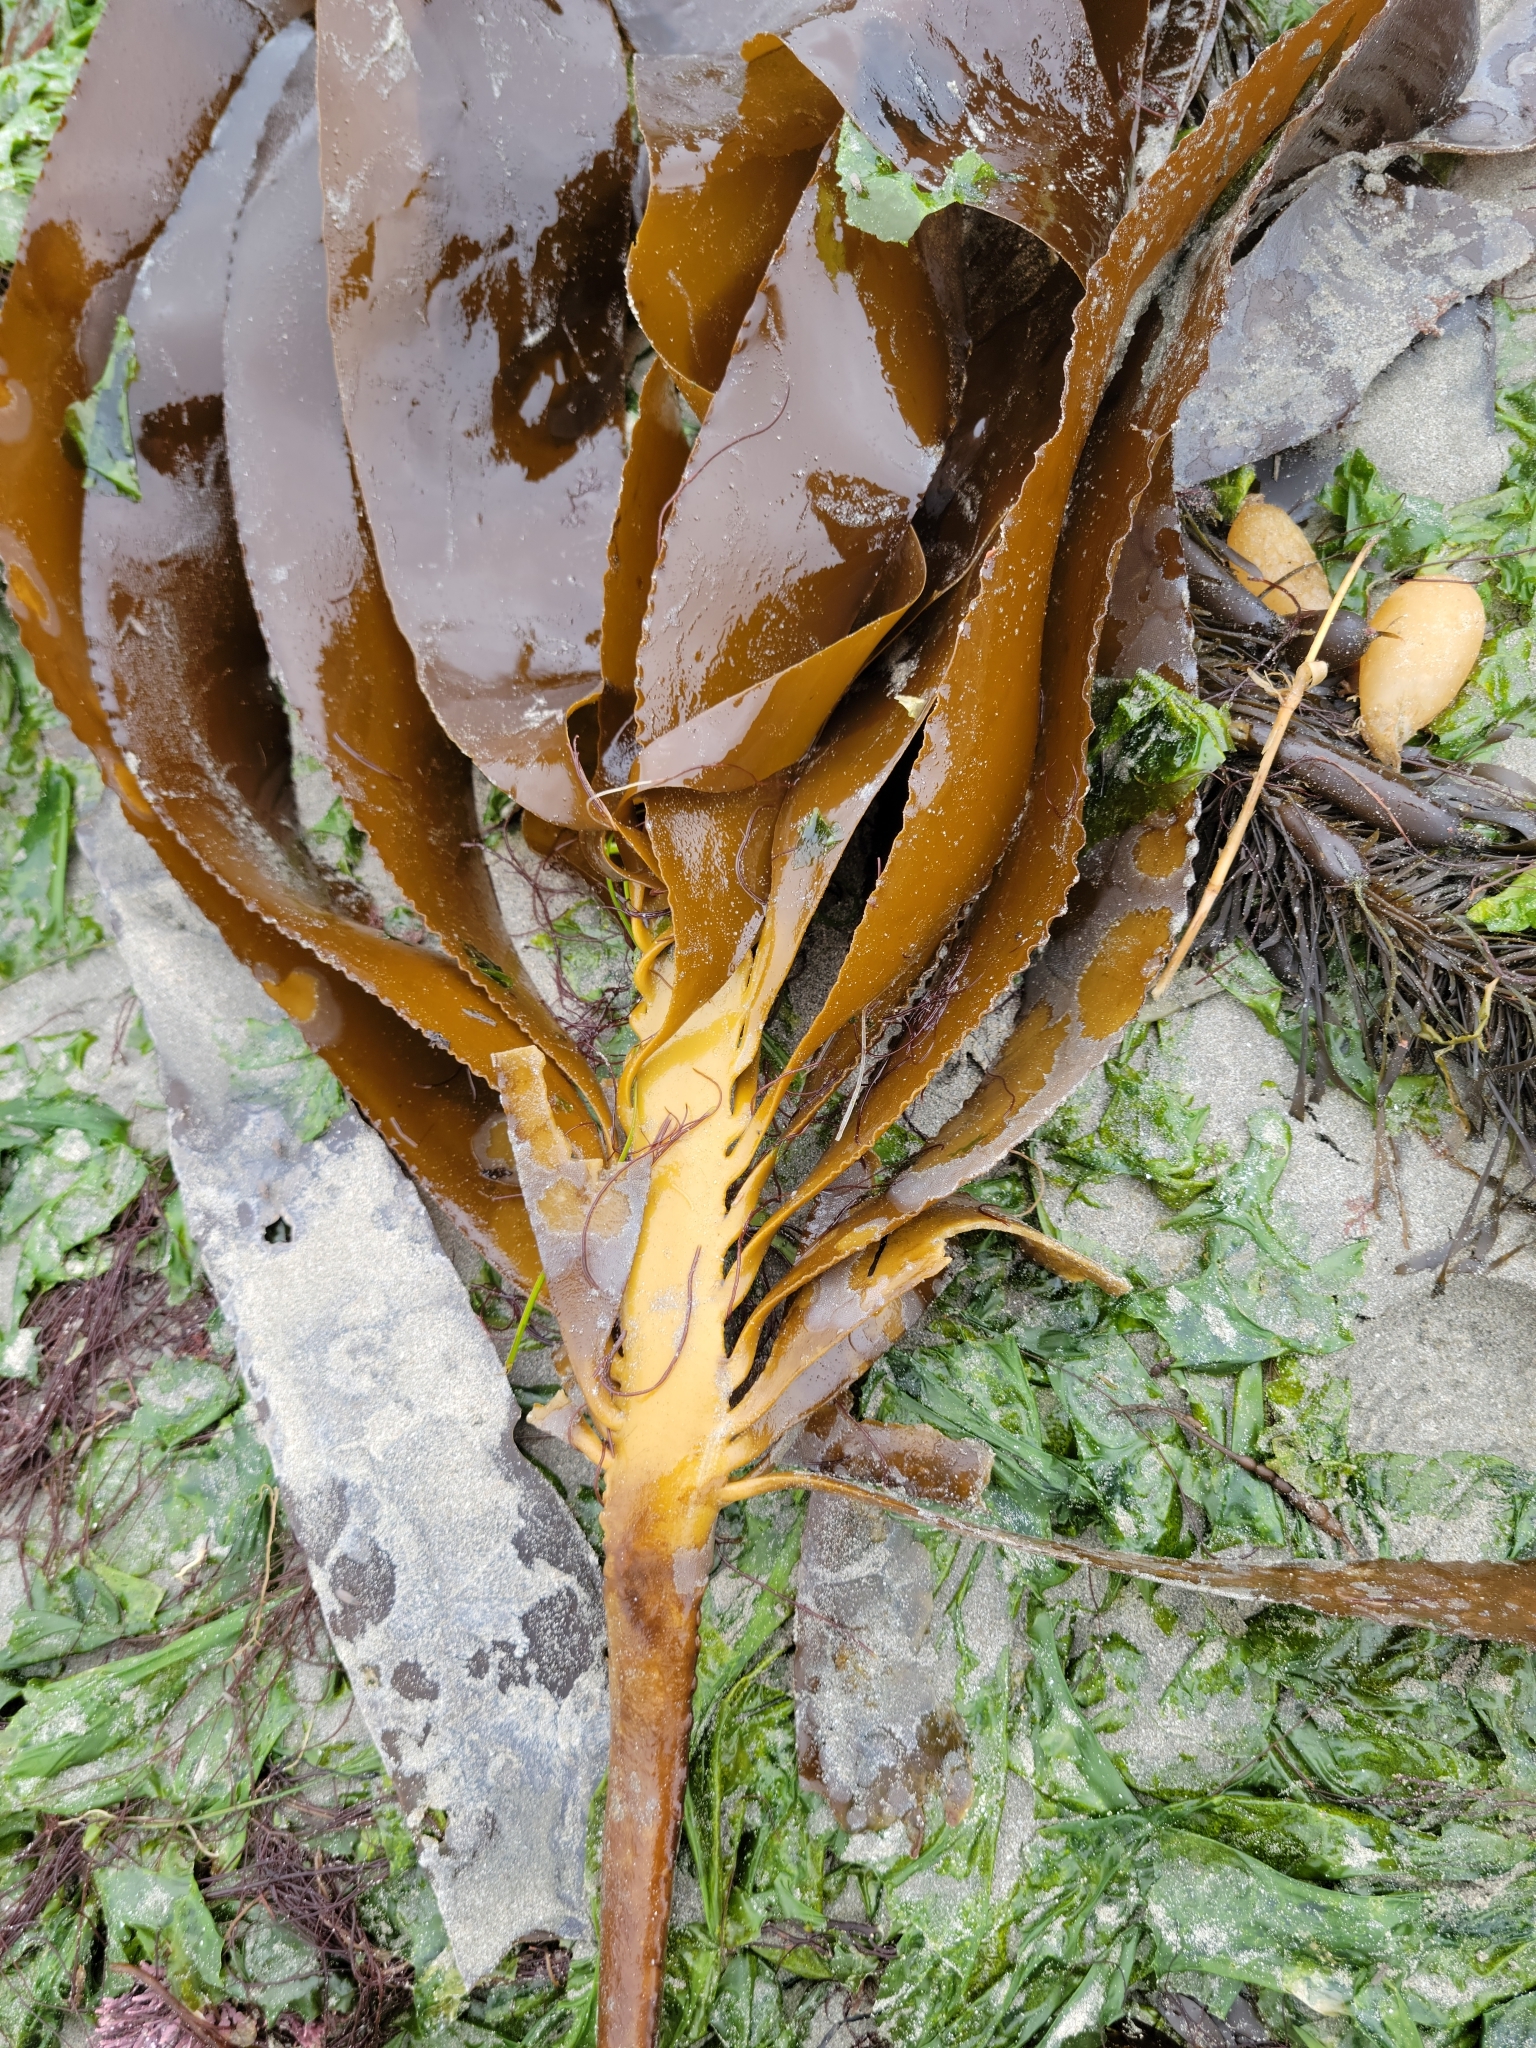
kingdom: Chromista
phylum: Ochrophyta
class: Phaeophyceae
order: Laminariales
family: Alariaceae
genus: Pterygophora
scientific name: Pterygophora californica
